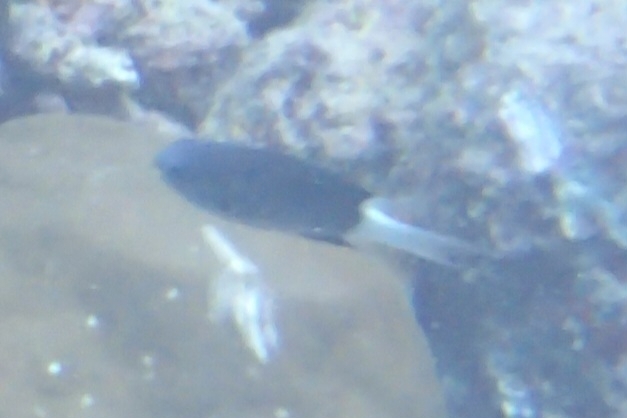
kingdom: Animalia
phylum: Chordata
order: Perciformes
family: Pomacentridae
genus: Pycnochromis
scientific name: Pycnochromis margaritifer
